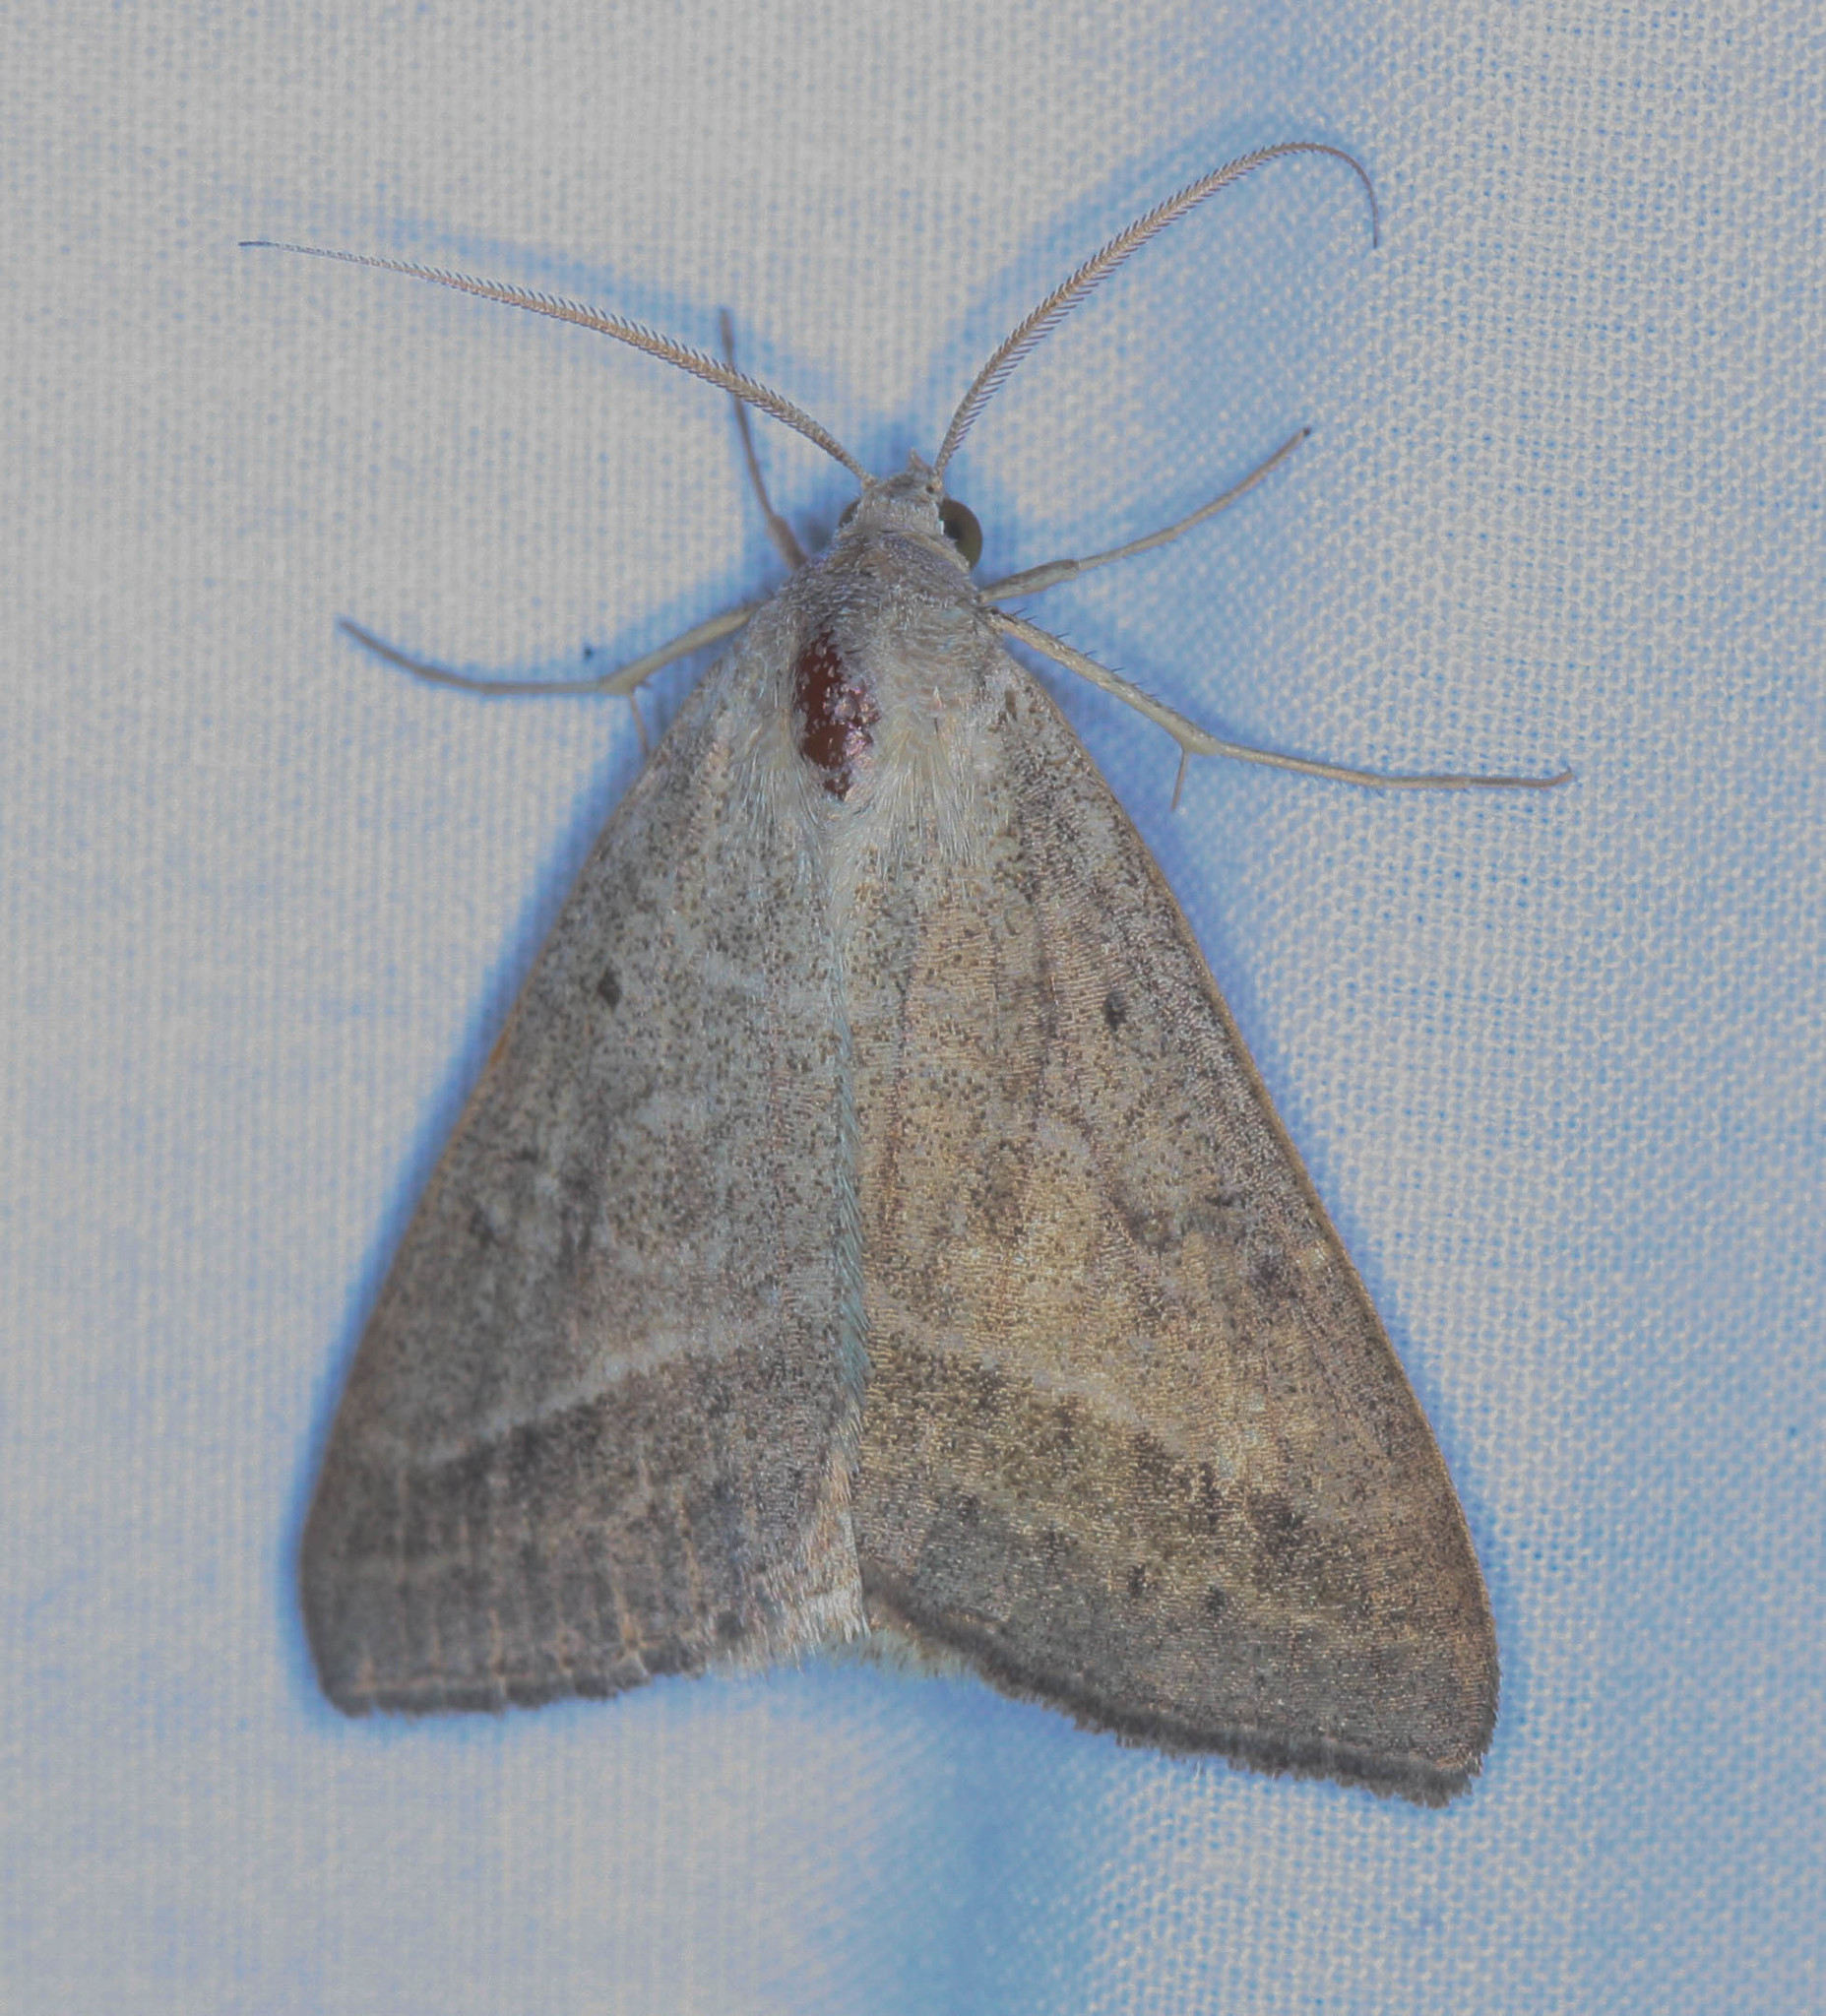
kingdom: Animalia
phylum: Arthropoda
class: Insecta
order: Lepidoptera
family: Erebidae
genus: Caenurgia
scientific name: Caenurgia togataria
